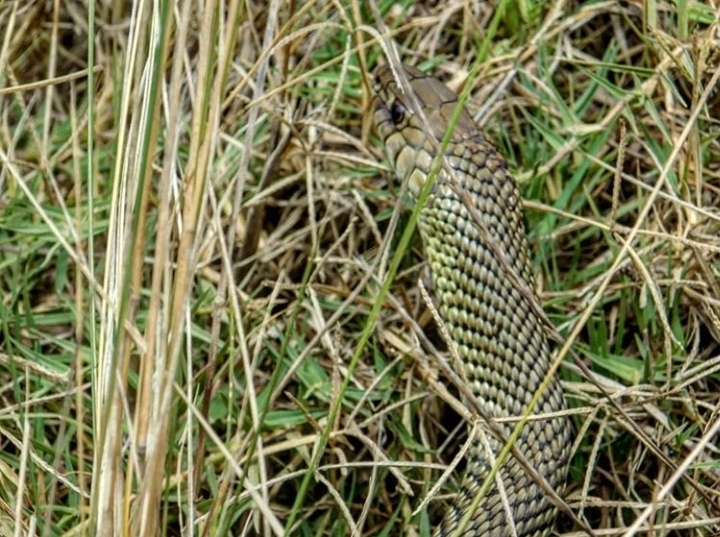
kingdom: Animalia
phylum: Chordata
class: Squamata
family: Colubridae
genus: Philodryas
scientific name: Philodryas patagoniensis
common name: Patagonia green racer
